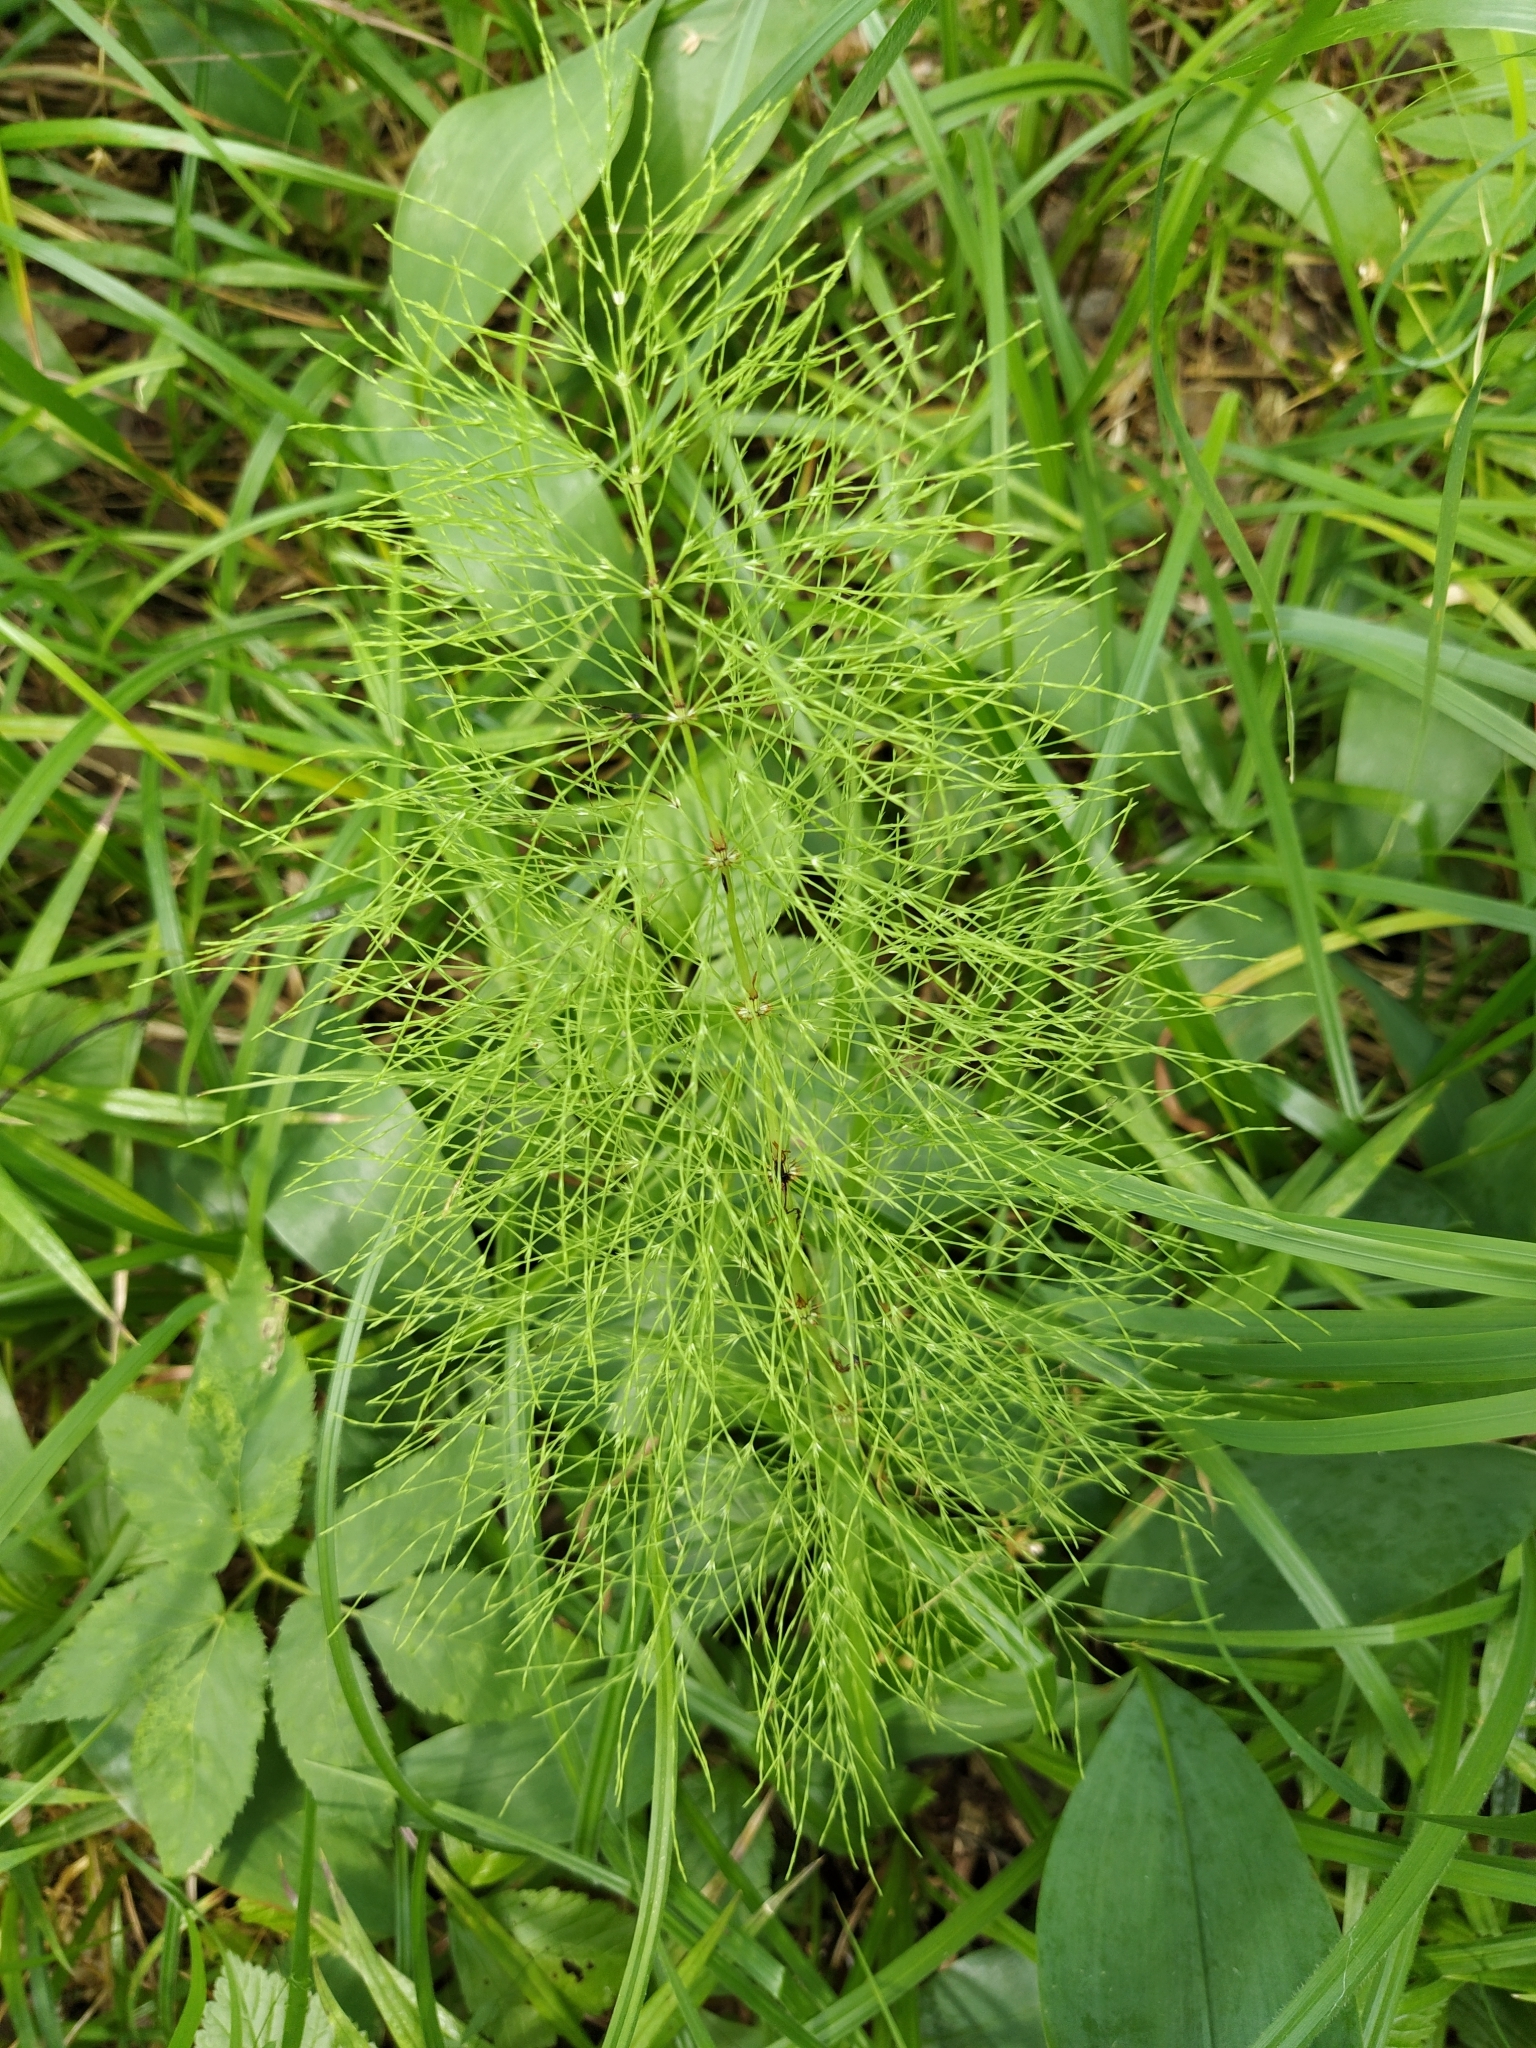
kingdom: Plantae
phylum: Tracheophyta
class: Polypodiopsida
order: Equisetales
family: Equisetaceae
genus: Equisetum
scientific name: Equisetum sylvaticum
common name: Wood horsetail
